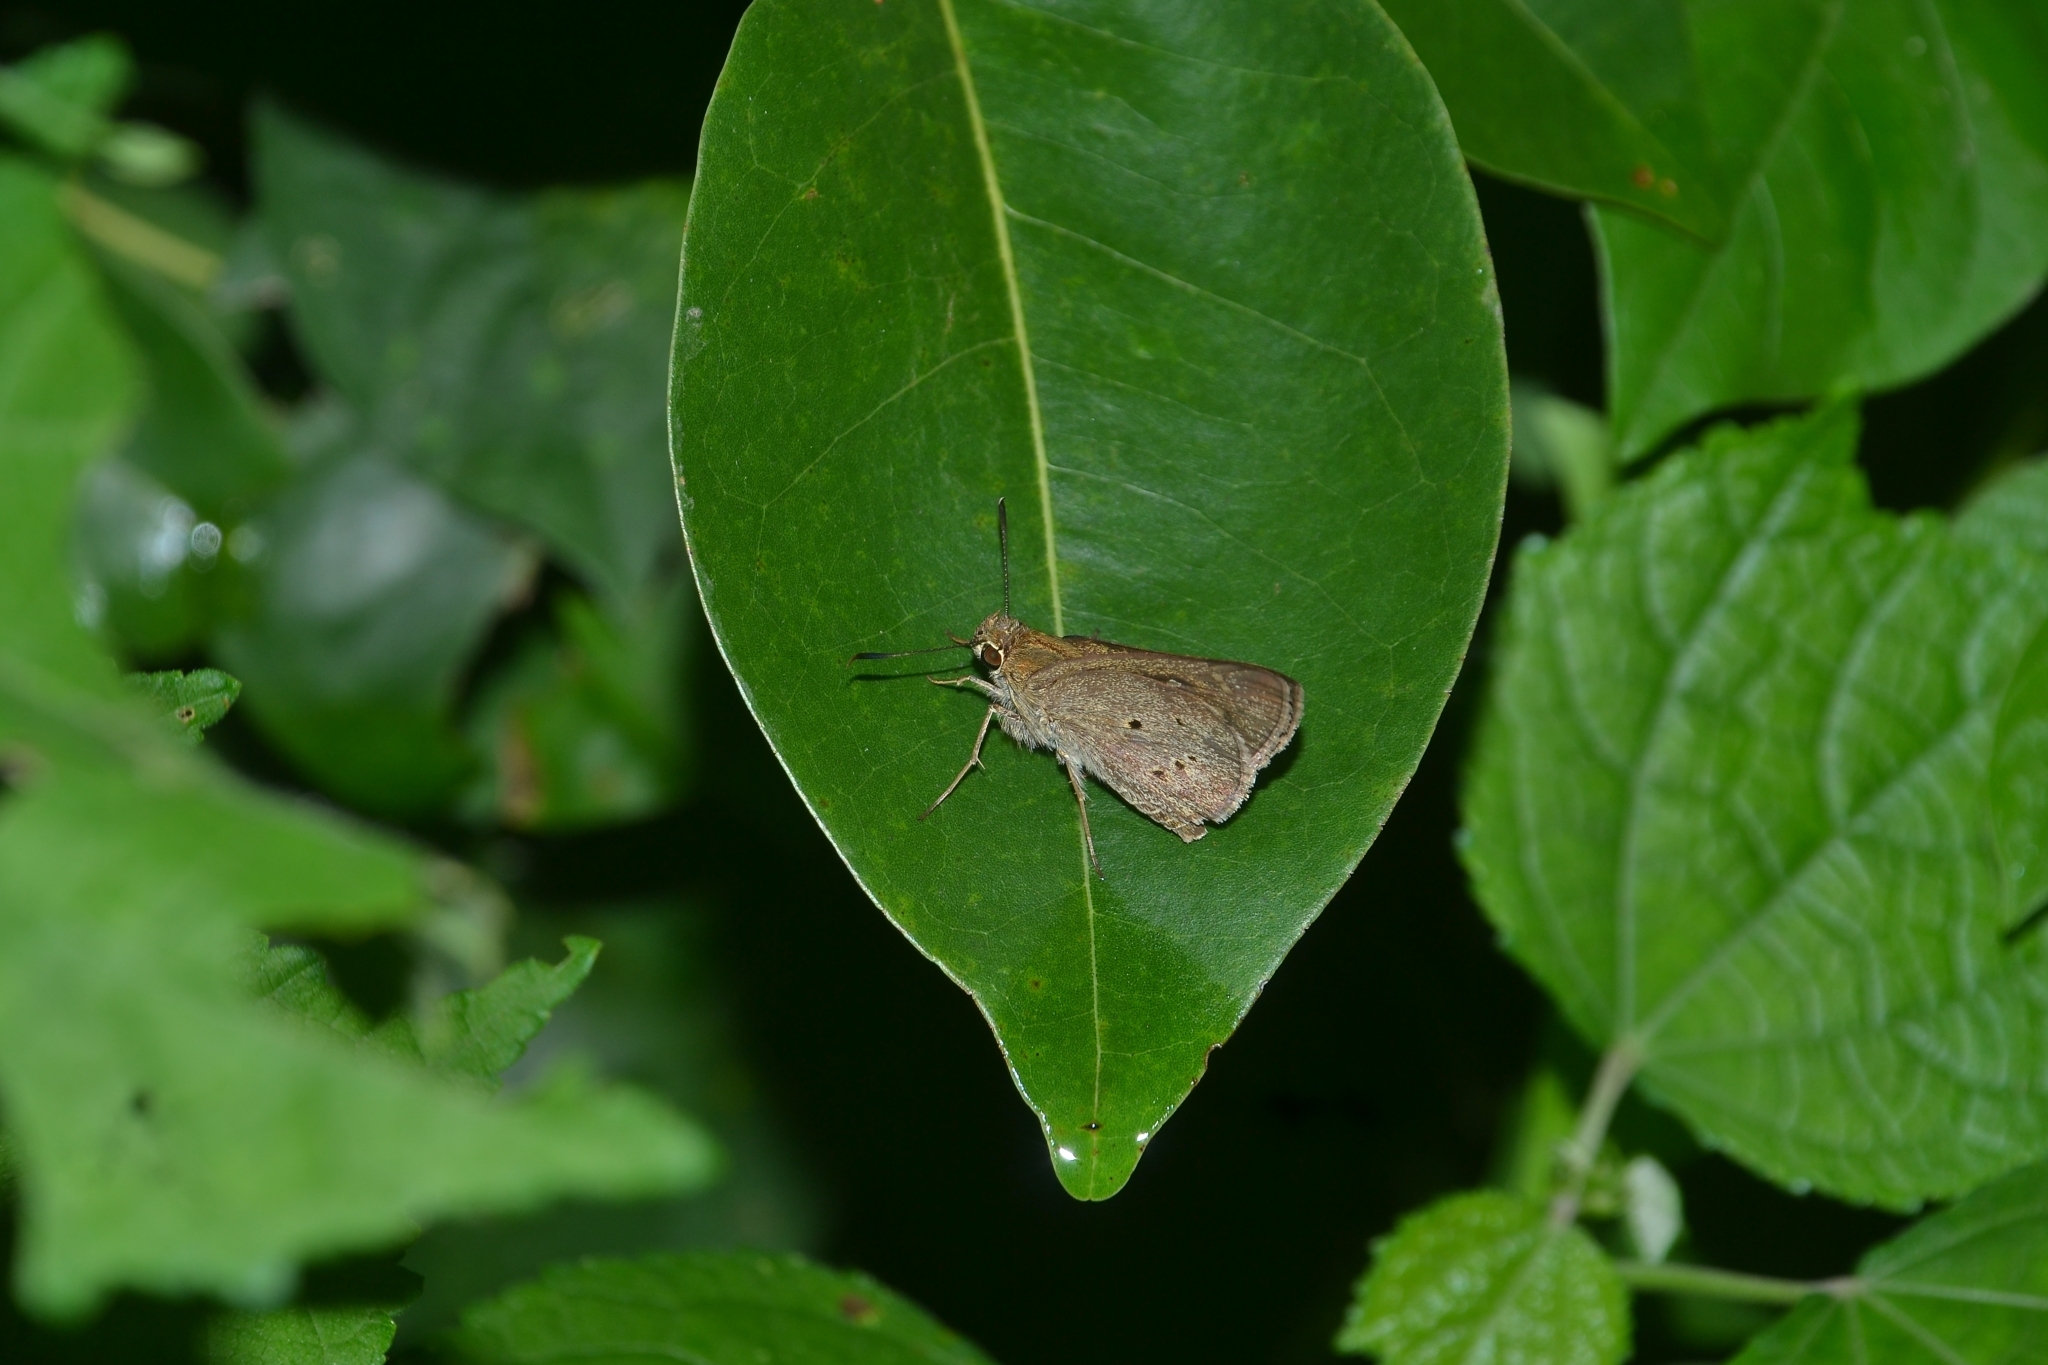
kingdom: Animalia
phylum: Arthropoda
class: Insecta
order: Lepidoptera
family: Hesperiidae
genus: Suastus
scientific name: Suastus gremius
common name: Indian palm bob
